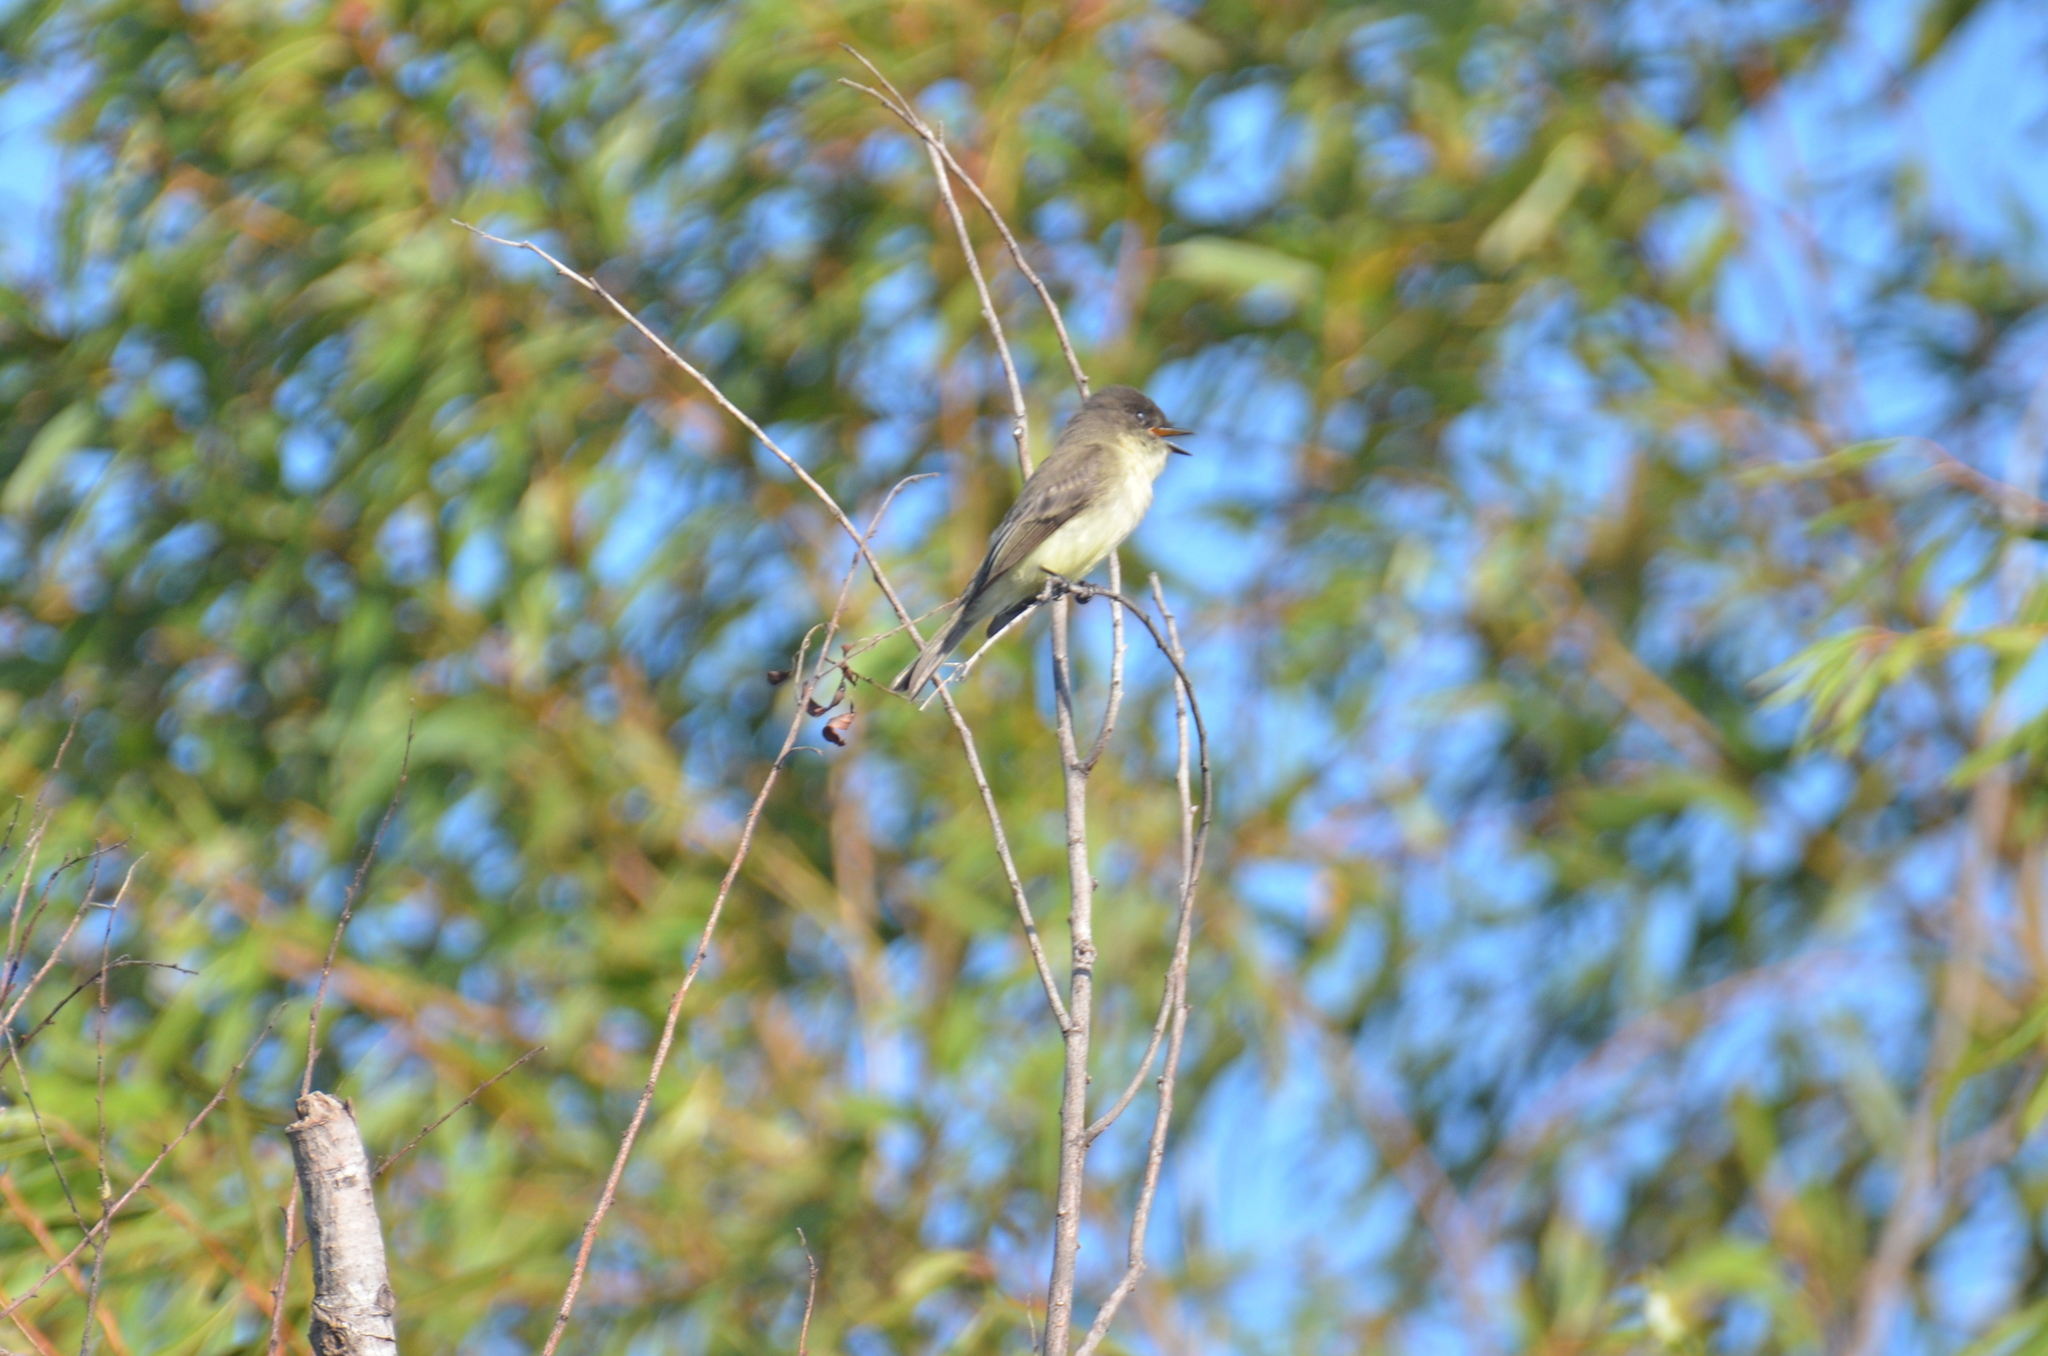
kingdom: Animalia
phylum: Chordata
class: Aves
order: Passeriformes
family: Tyrannidae
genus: Sayornis
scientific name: Sayornis phoebe
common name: Eastern phoebe
